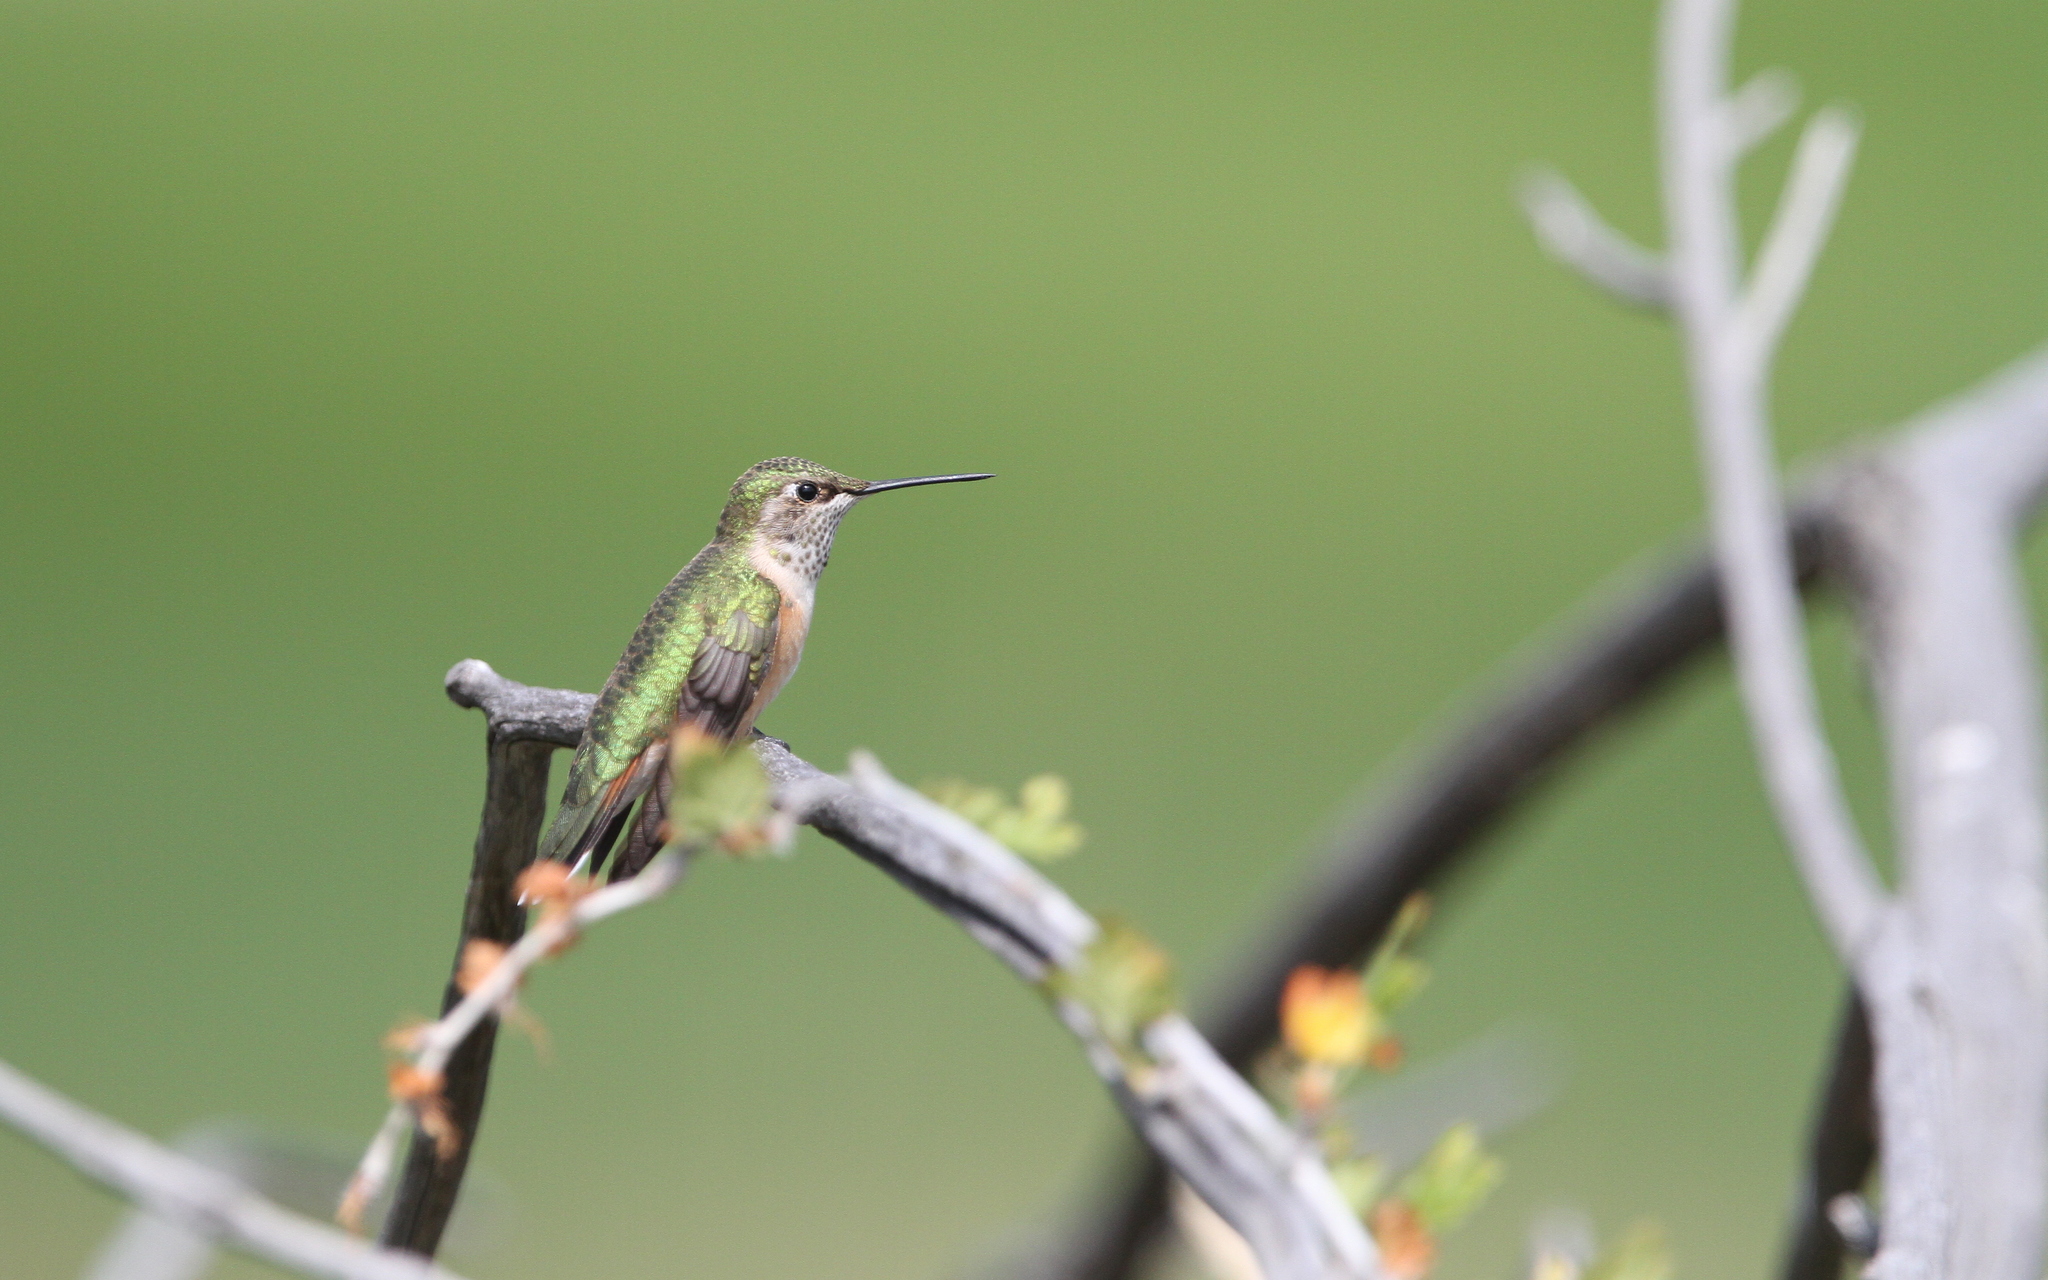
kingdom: Animalia
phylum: Chordata
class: Aves
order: Apodiformes
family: Trochilidae
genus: Selasphorus
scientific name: Selasphorus platycercus
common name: Broad-tailed hummingbird
